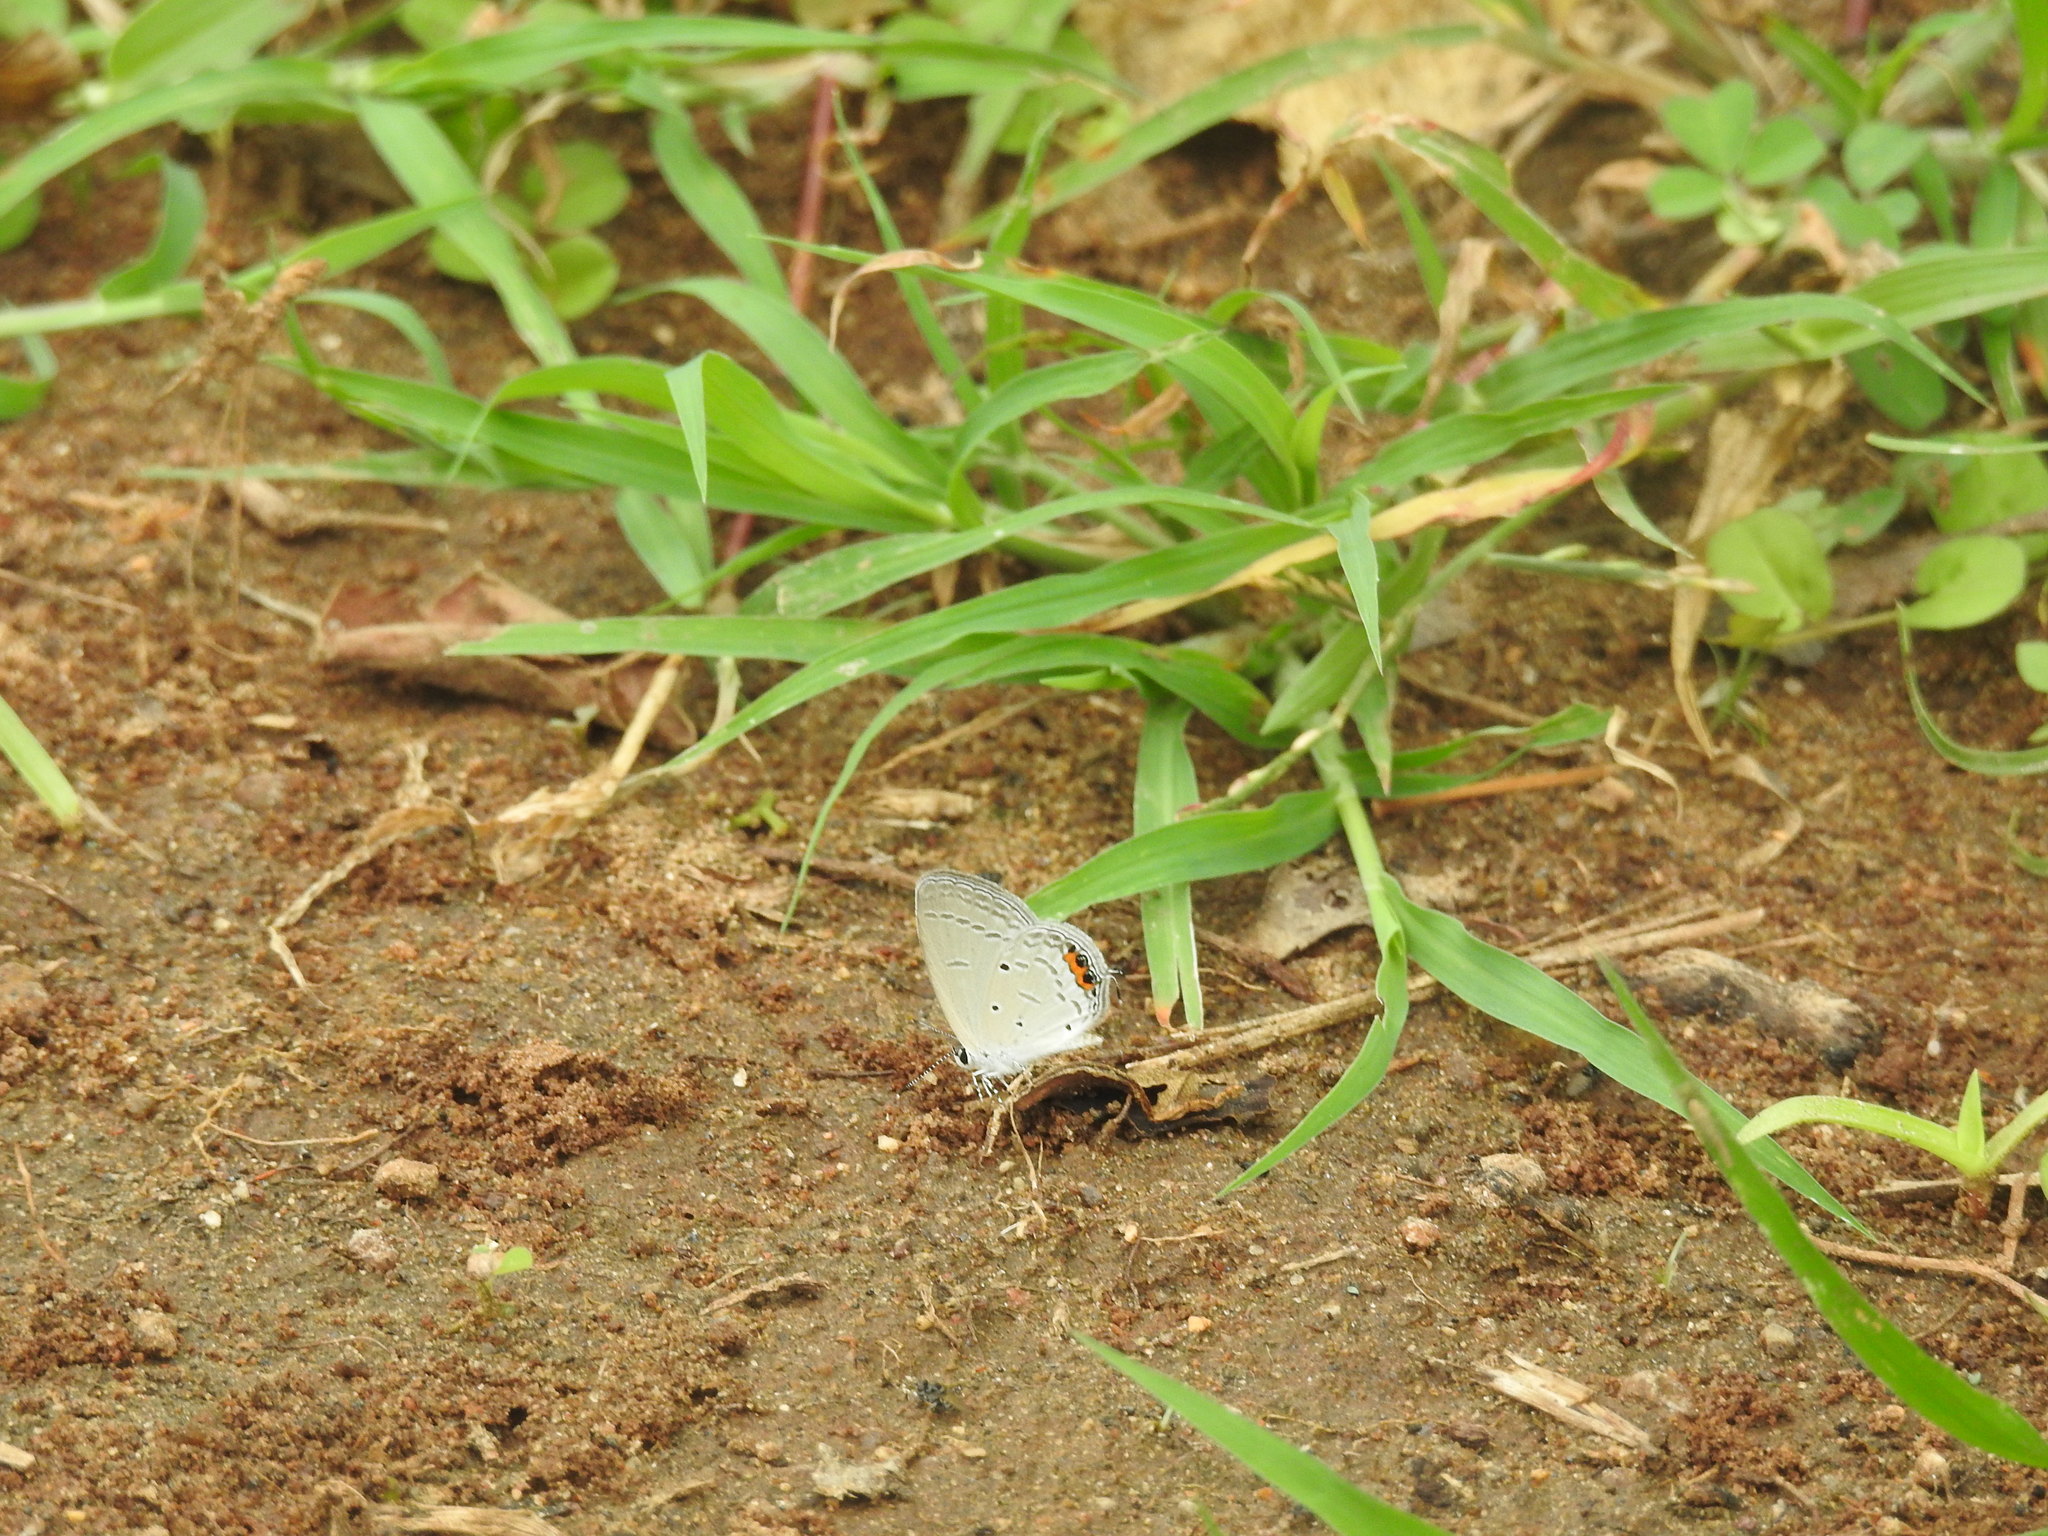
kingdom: Animalia
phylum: Arthropoda
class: Insecta
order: Lepidoptera
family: Lycaenidae
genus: Everes
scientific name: Everes lacturnus
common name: Orange-tipped pea-blue
